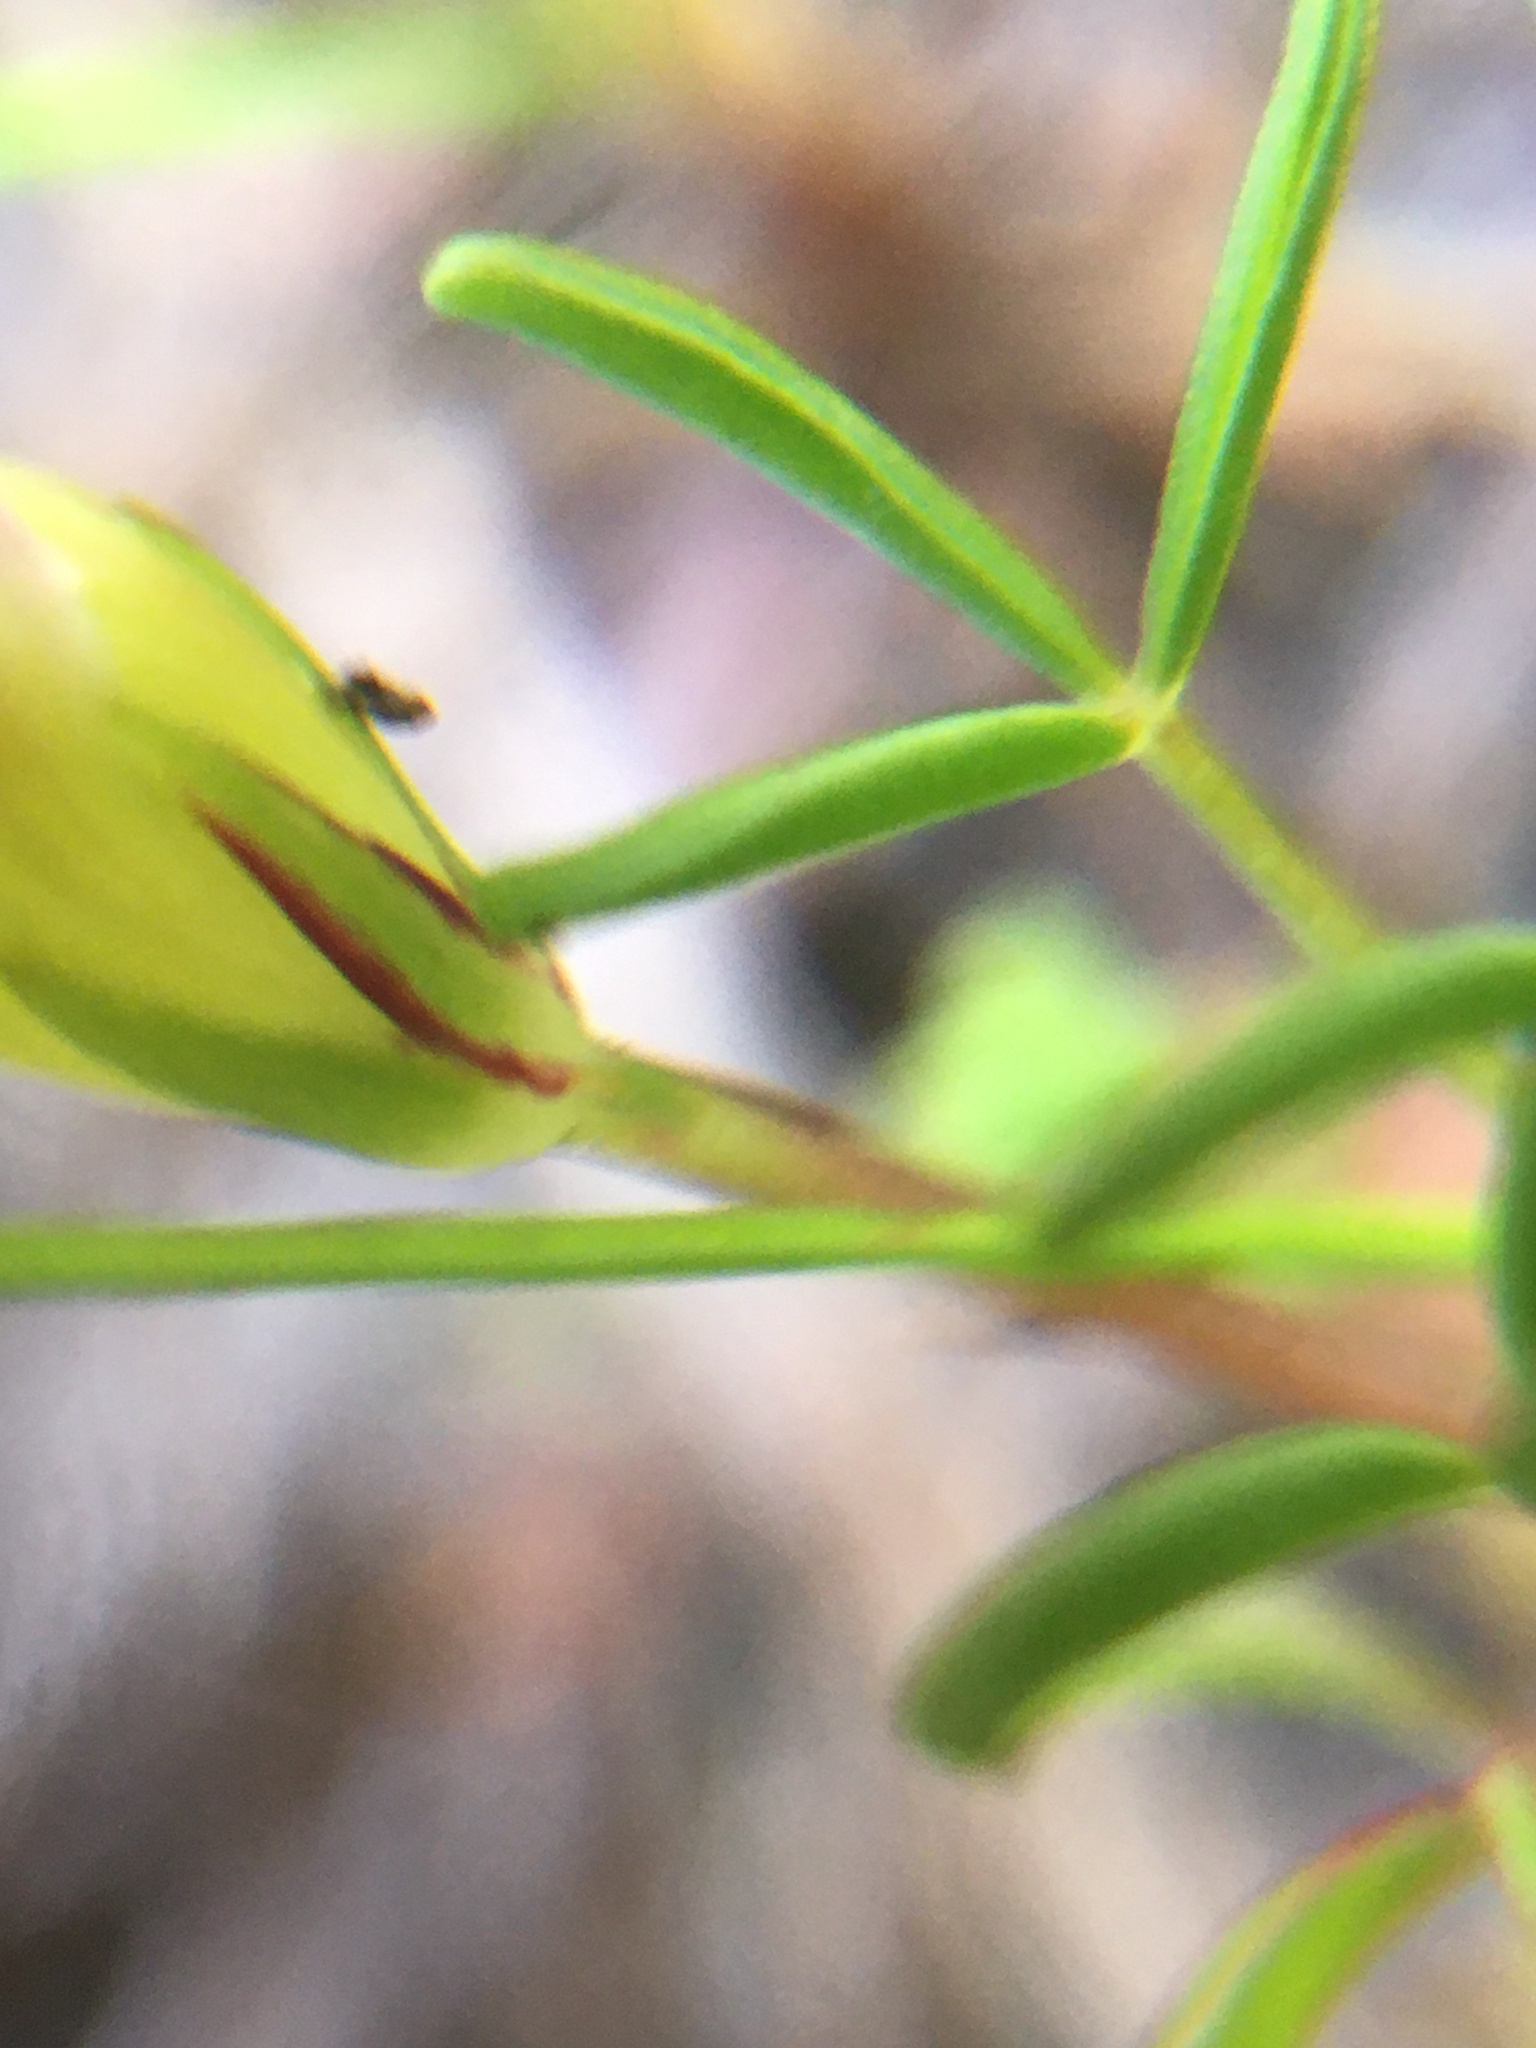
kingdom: Plantae
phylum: Tracheophyta
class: Magnoliopsida
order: Oxalidales
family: Oxalidaceae
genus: Oxalis
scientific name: Oxalis pusilla
